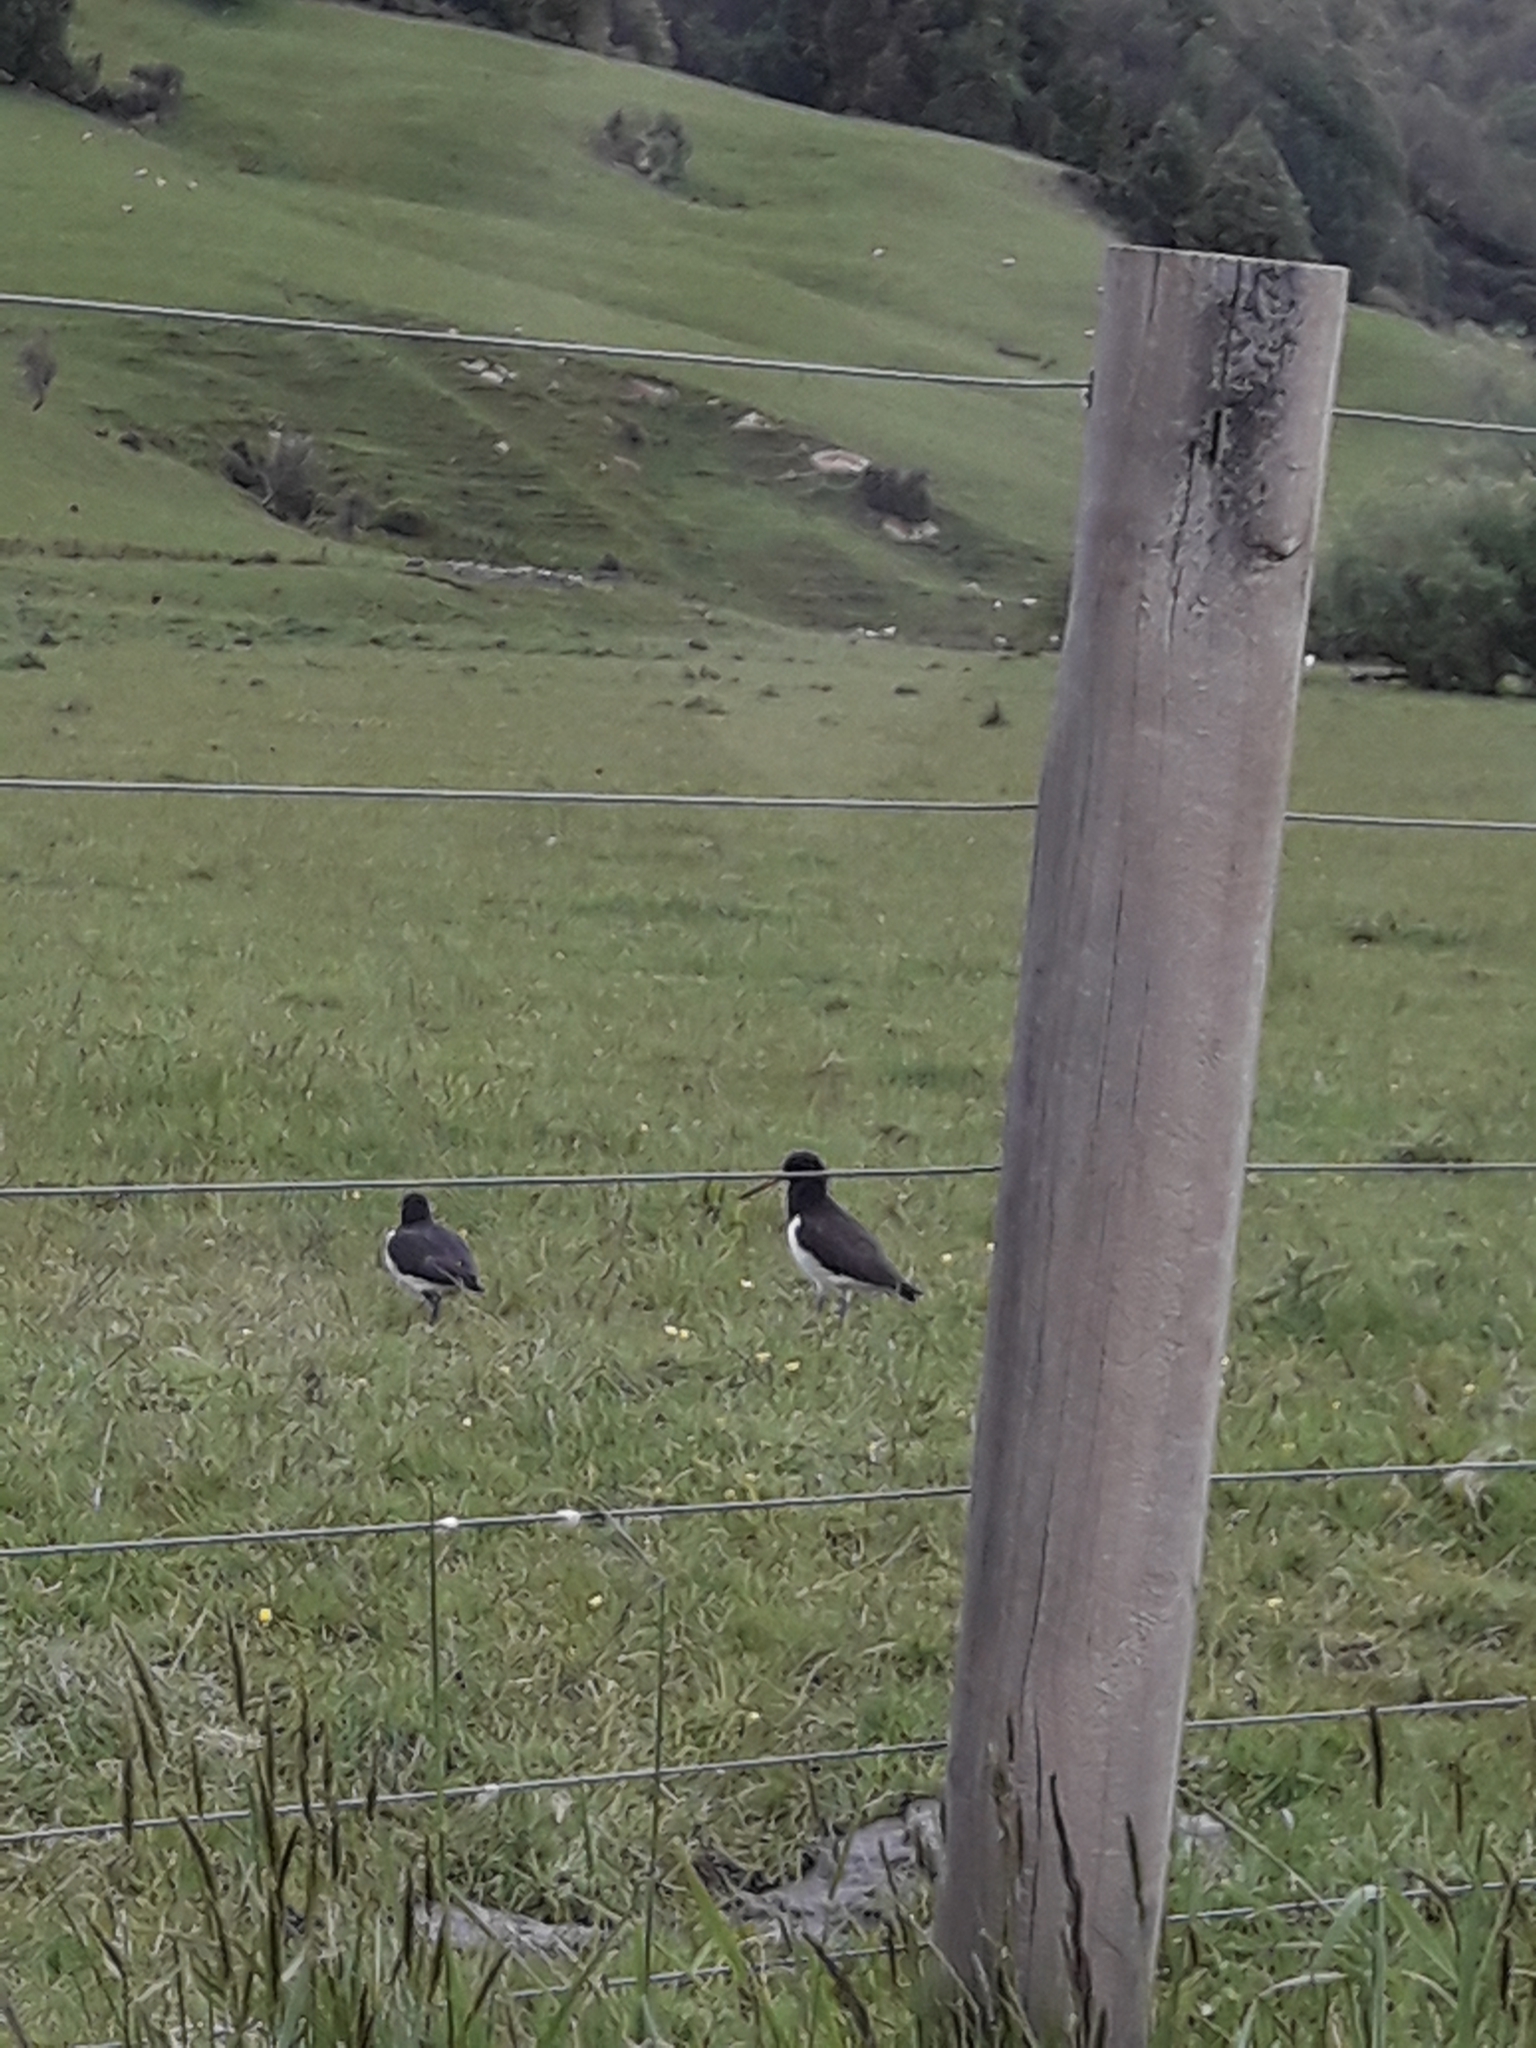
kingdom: Animalia
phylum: Chordata
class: Aves
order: Charadriiformes
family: Haematopodidae
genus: Haematopus
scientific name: Haematopus finschi
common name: South island oystercatcher
